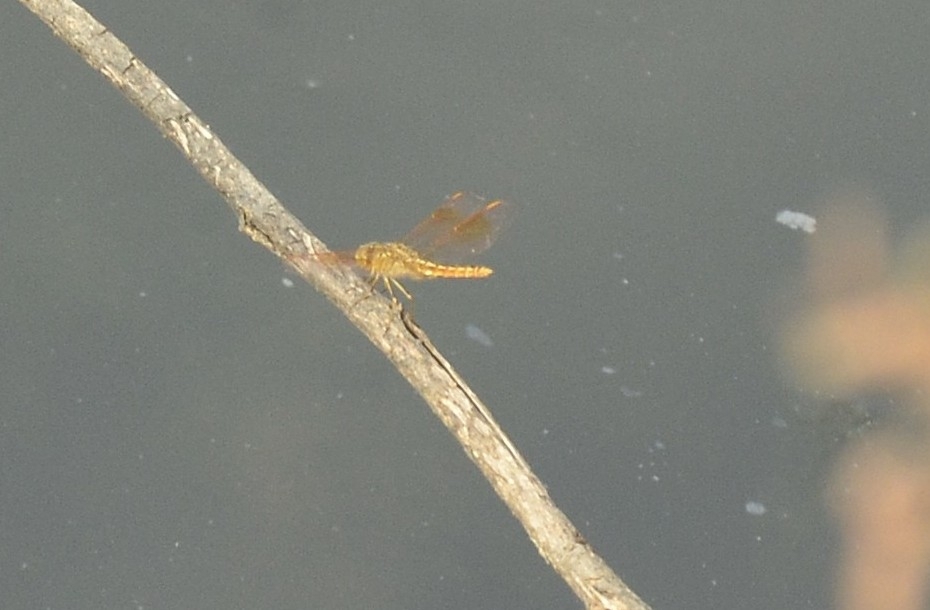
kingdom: Animalia
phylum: Arthropoda
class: Insecta
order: Odonata
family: Libellulidae
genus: Brachythemis
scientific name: Brachythemis contaminata
